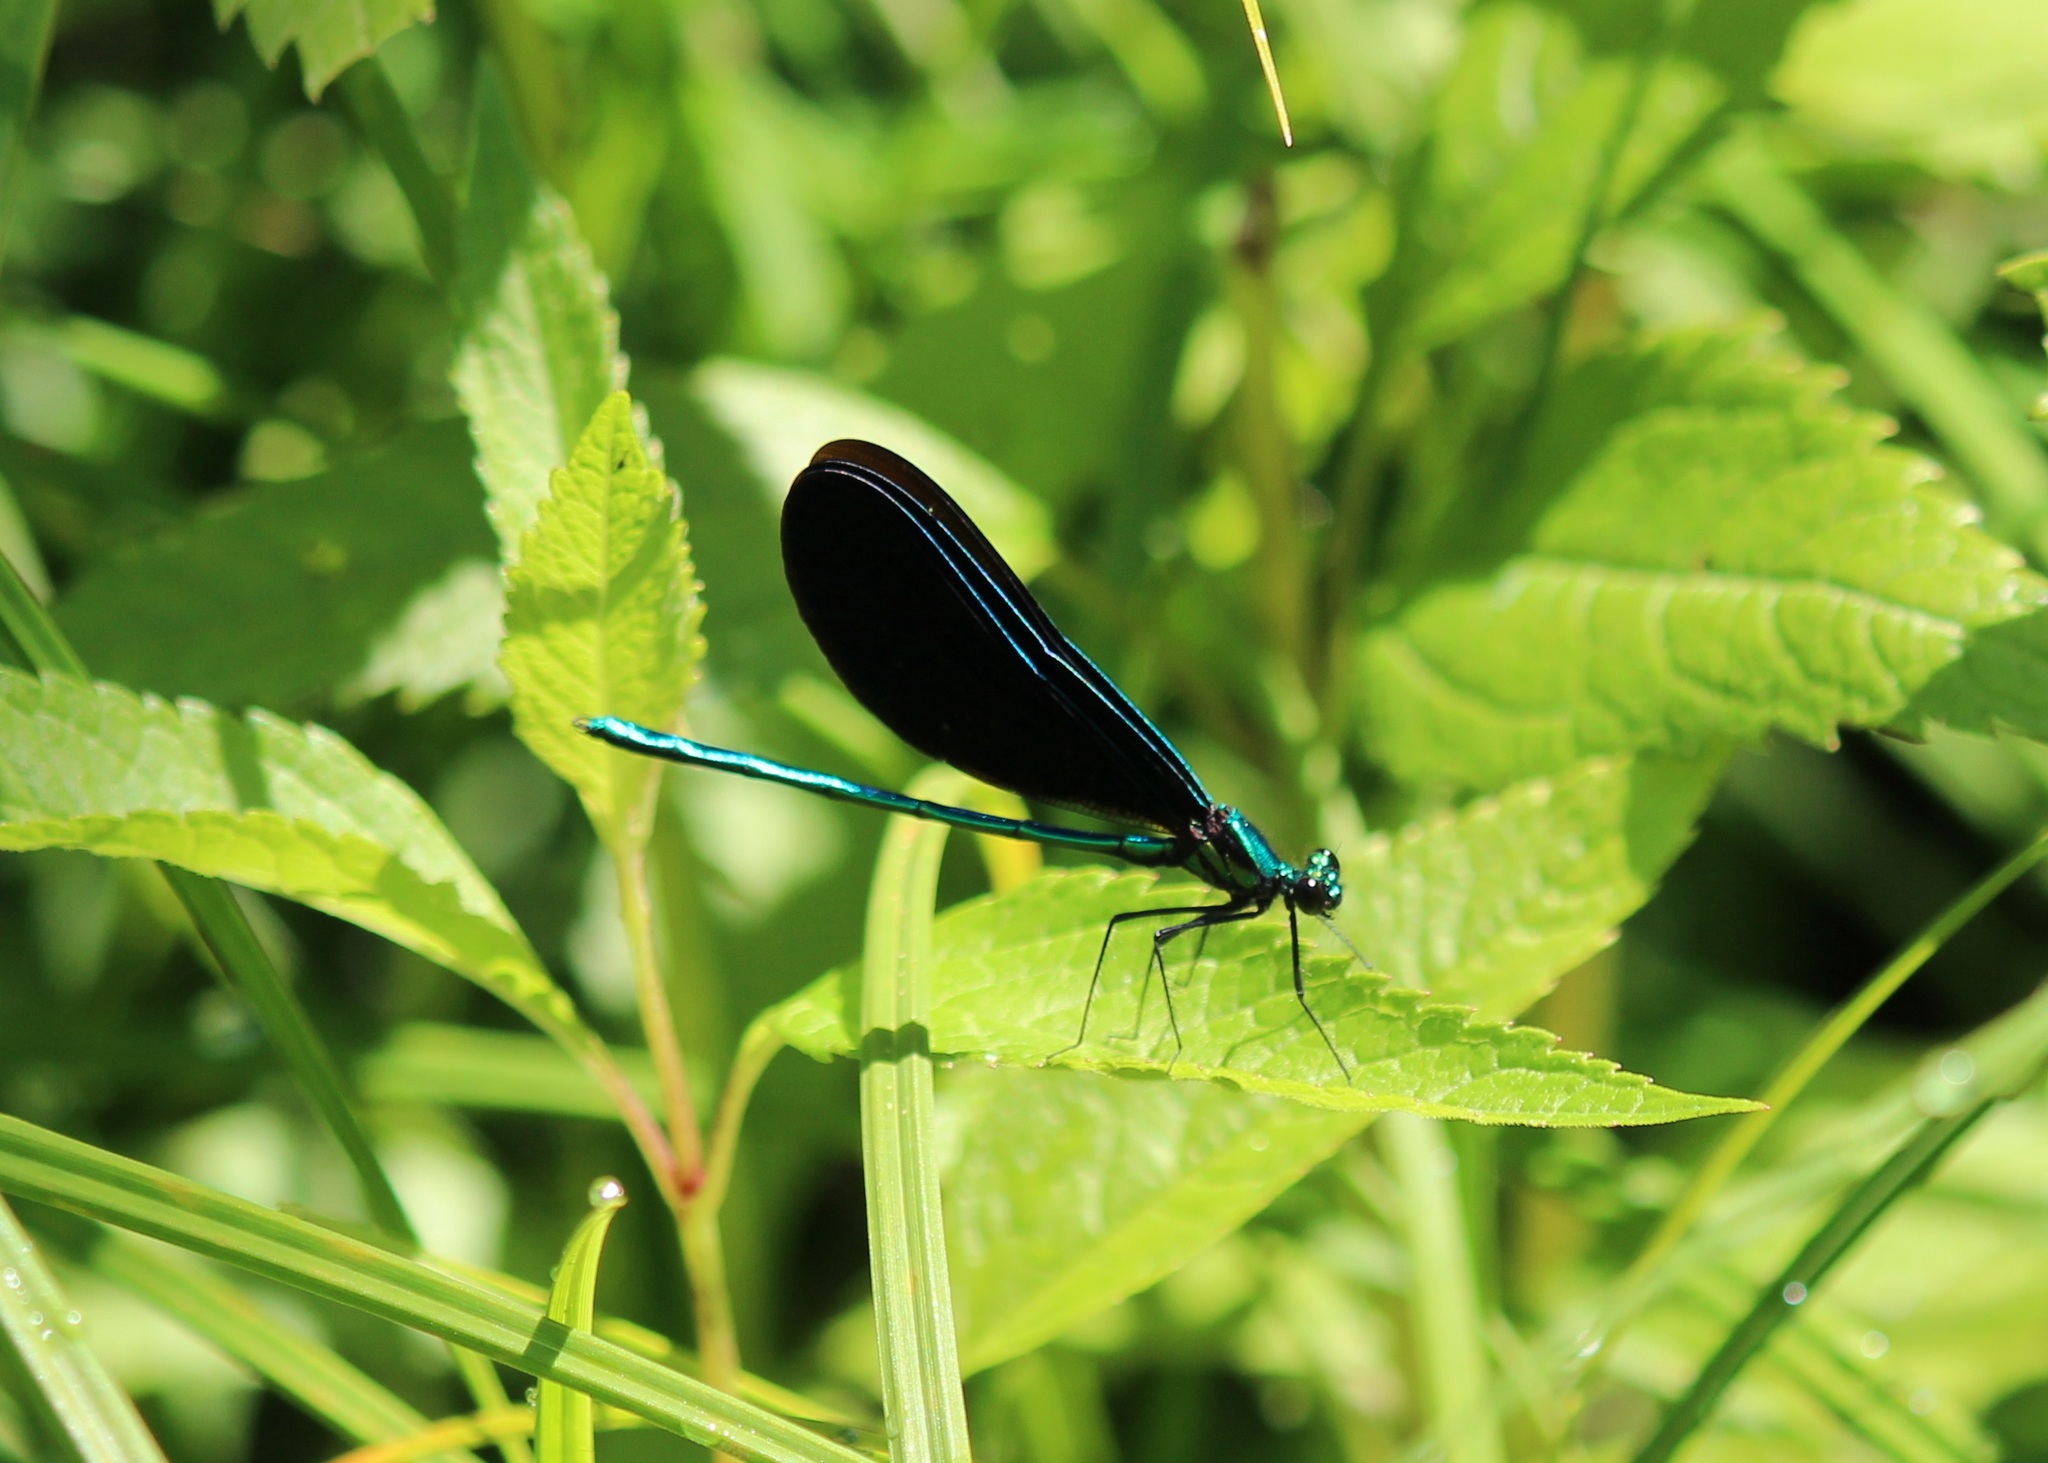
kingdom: Animalia
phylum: Arthropoda
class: Insecta
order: Odonata
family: Calopterygidae
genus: Calopteryx
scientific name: Calopteryx maculata
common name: Ebony jewelwing
